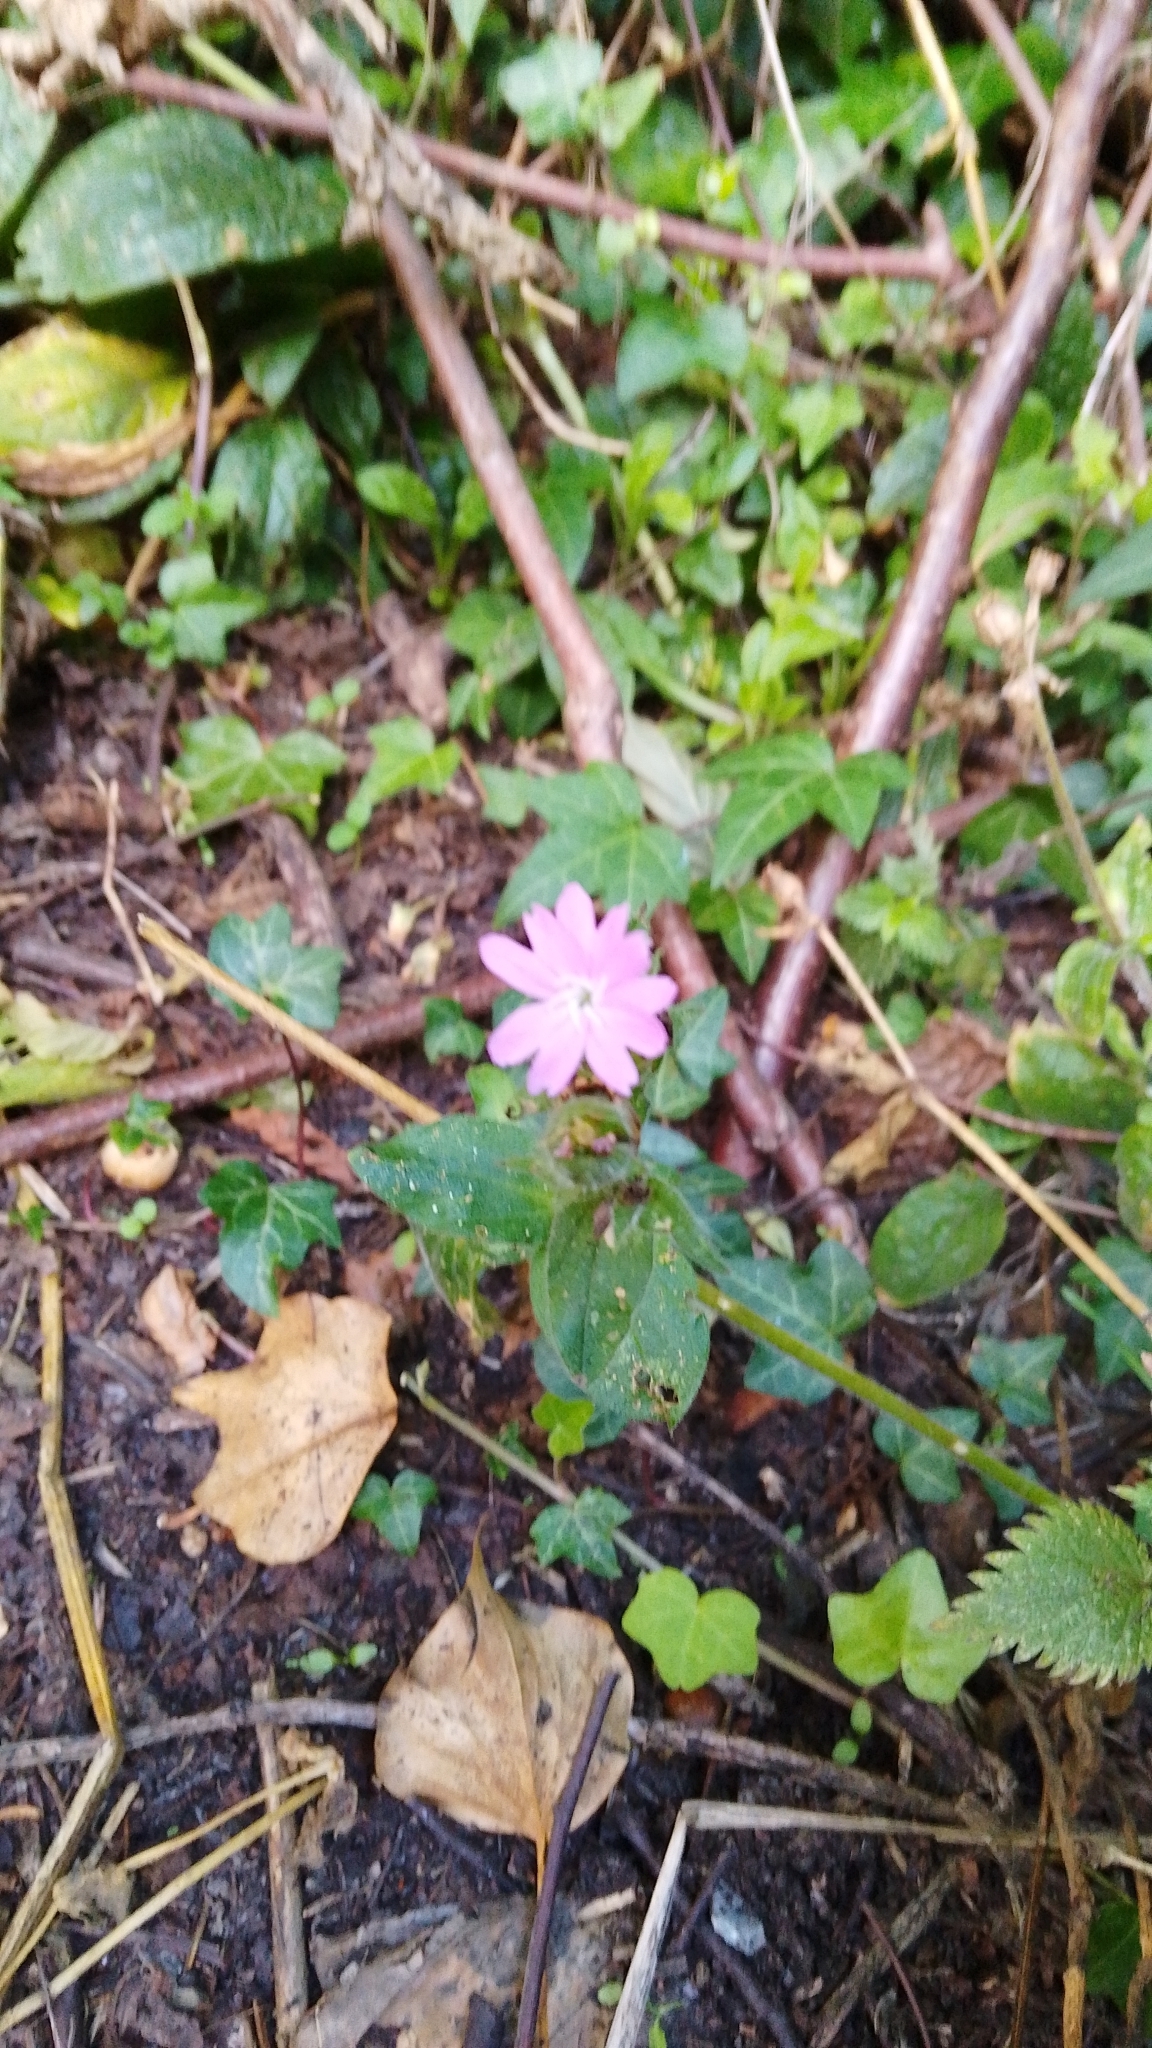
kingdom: Plantae
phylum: Tracheophyta
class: Magnoliopsida
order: Caryophyllales
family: Caryophyllaceae
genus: Silene
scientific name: Silene dioica
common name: Red campion
